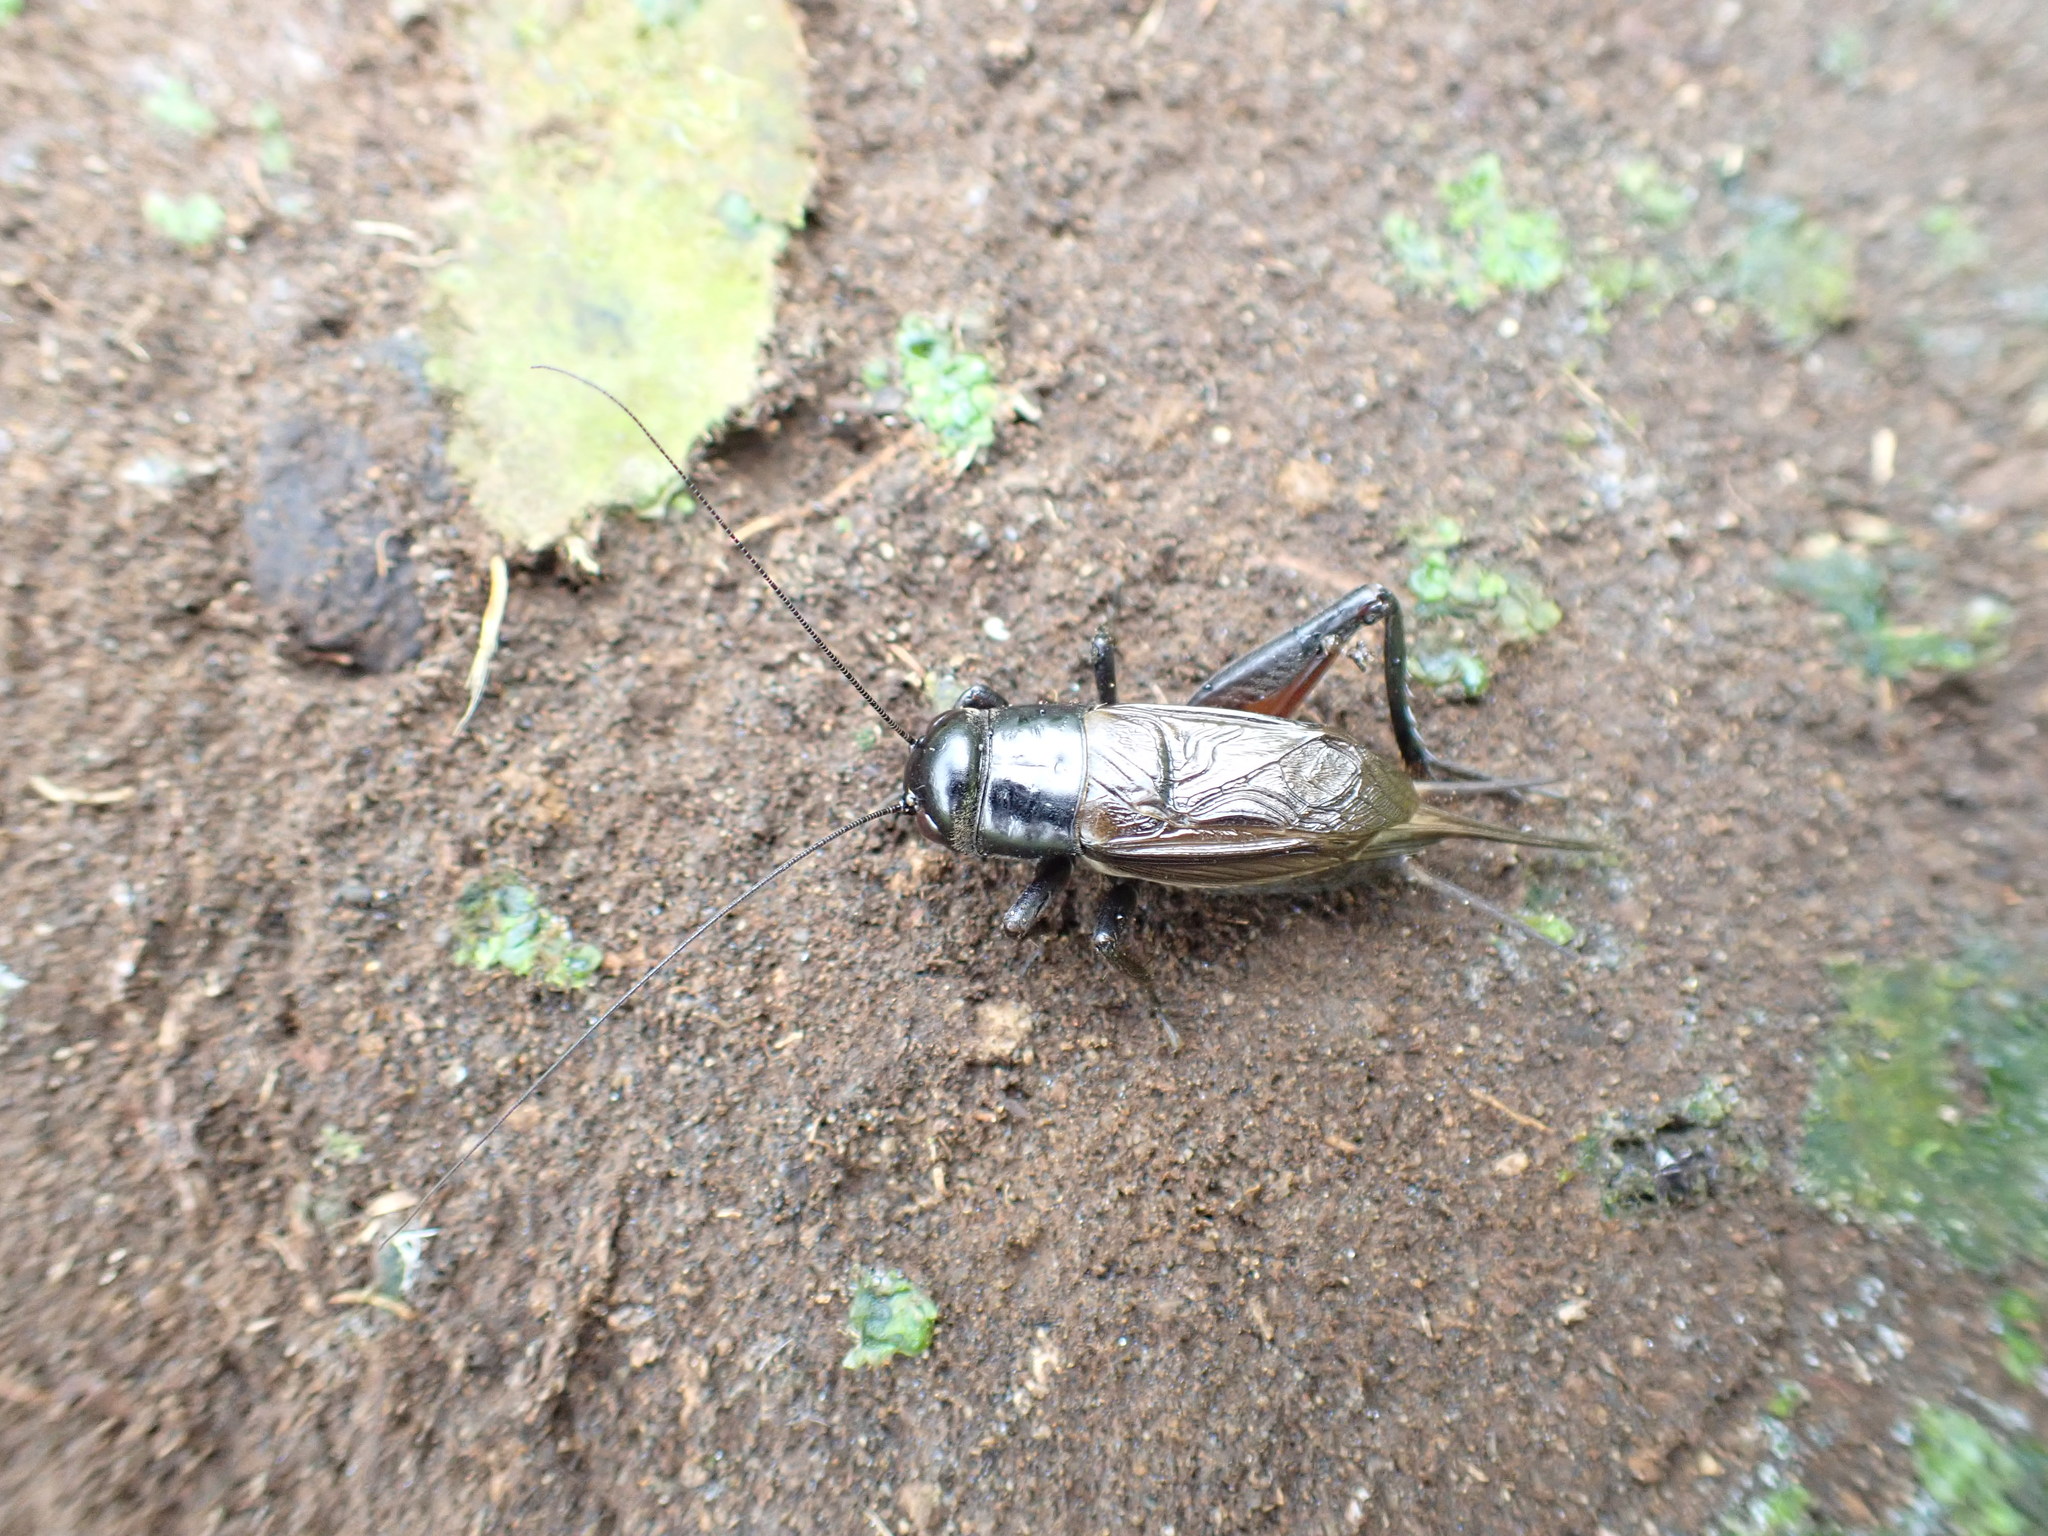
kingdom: Animalia
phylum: Arthropoda
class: Insecta
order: Orthoptera
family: Gryllidae
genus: Teleogryllus
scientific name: Teleogryllus commodus
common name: Black field cricket
